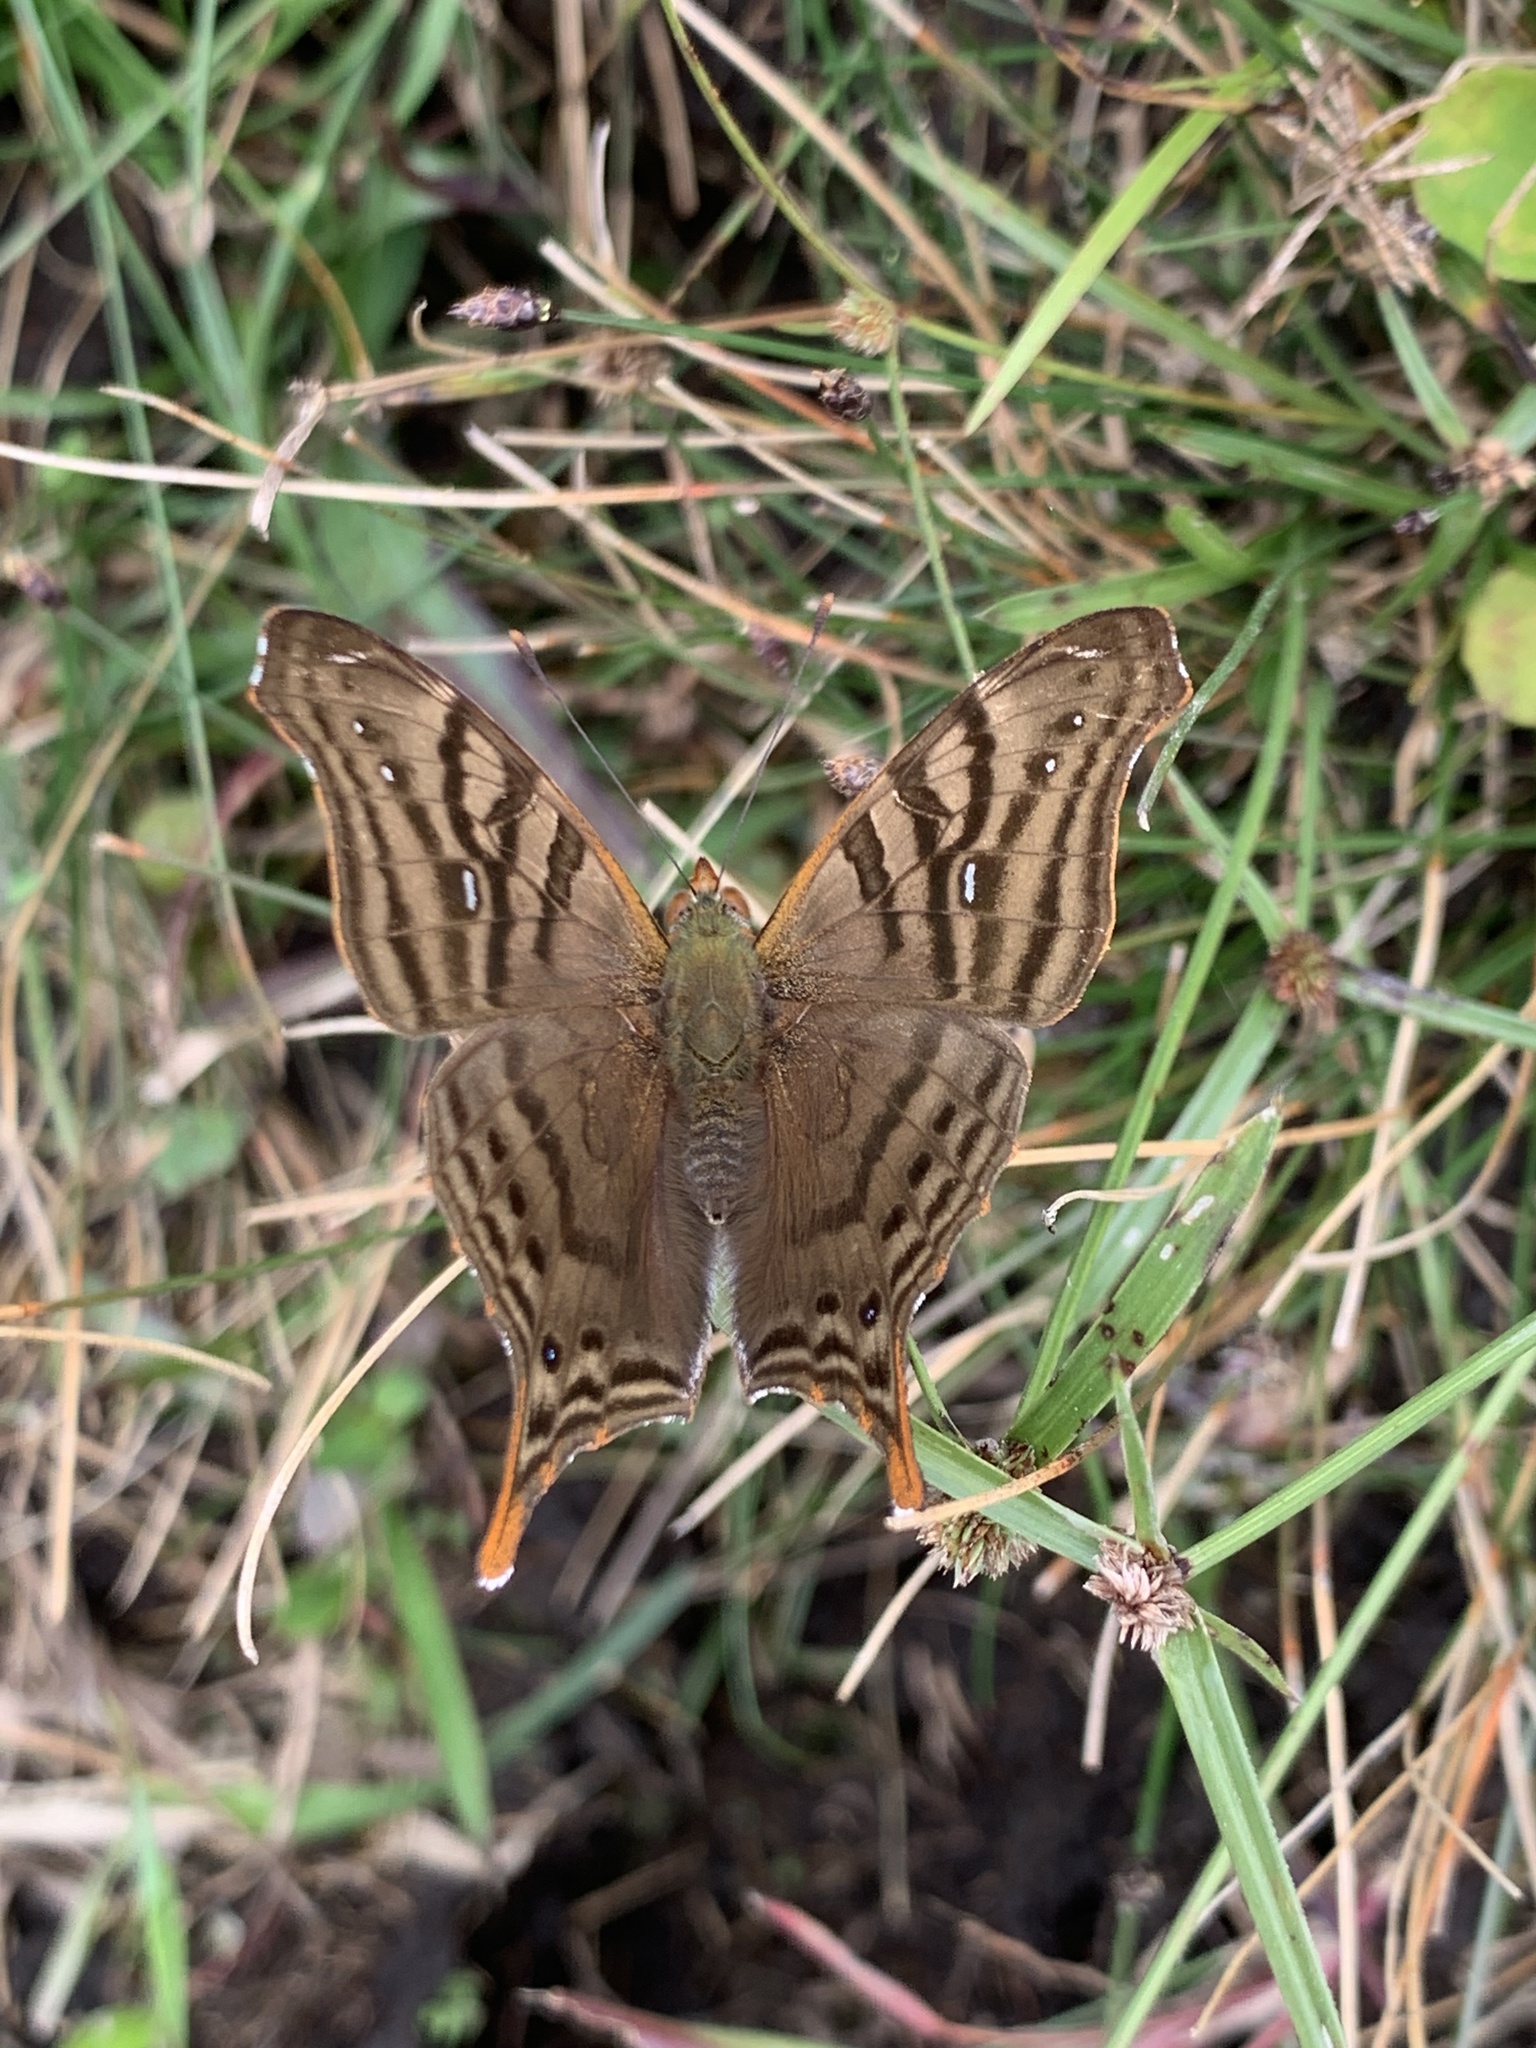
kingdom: Animalia
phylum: Arthropoda
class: Insecta
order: Lepidoptera
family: Nymphalidae
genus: Hypanartia
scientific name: Hypanartia dione
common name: Banded mapwing
